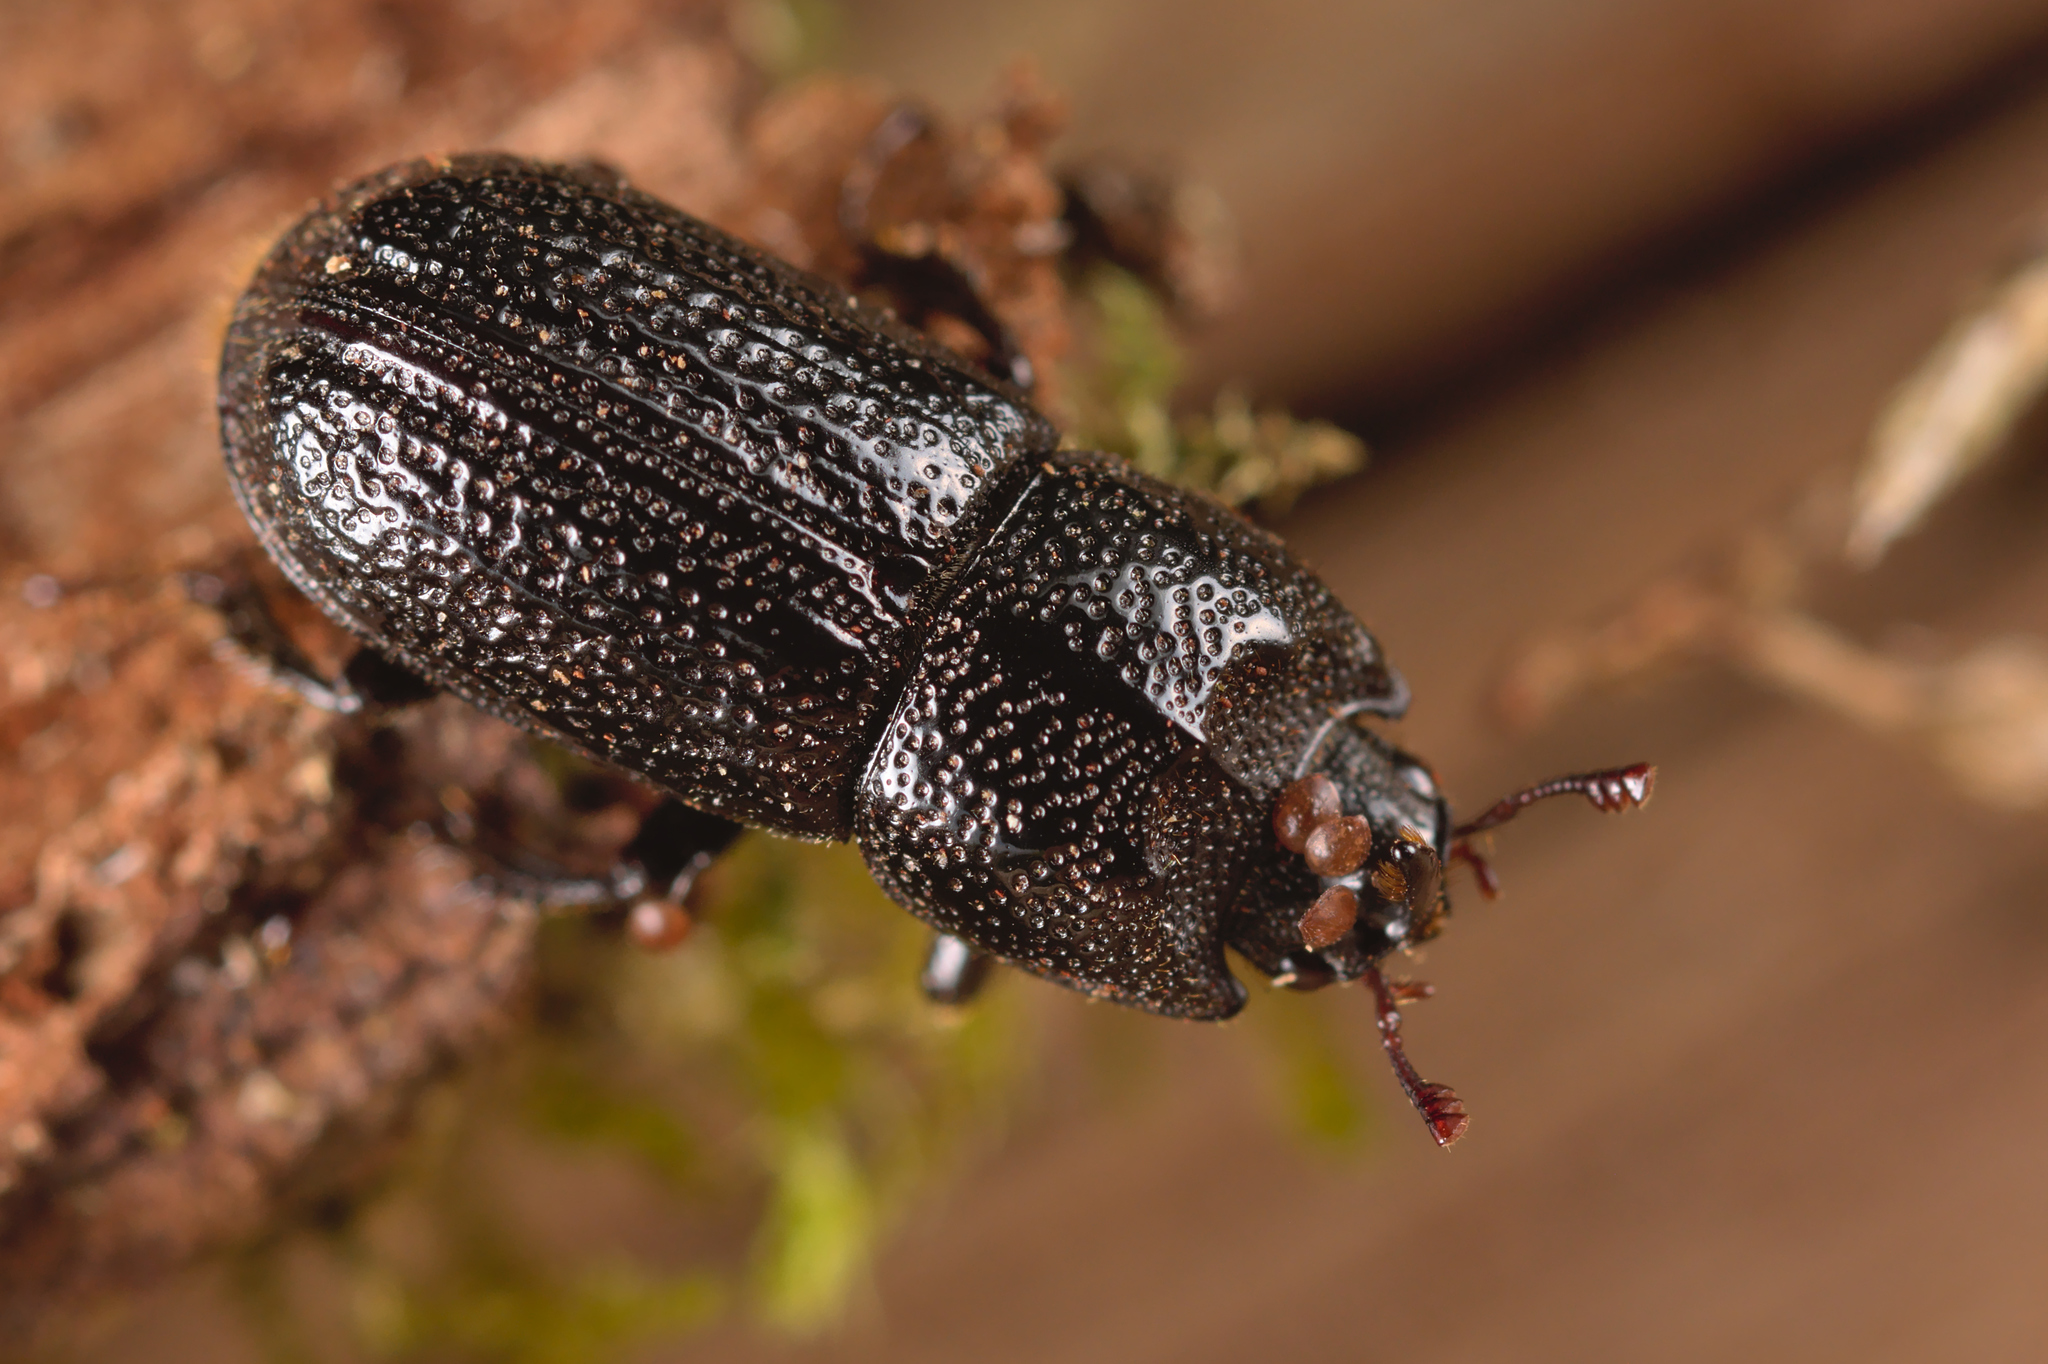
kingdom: Animalia
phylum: Arthropoda
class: Insecta
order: Coleoptera
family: Lucanidae
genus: Sinodendron
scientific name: Sinodendron cylindricum
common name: Rhinoceros beetle
